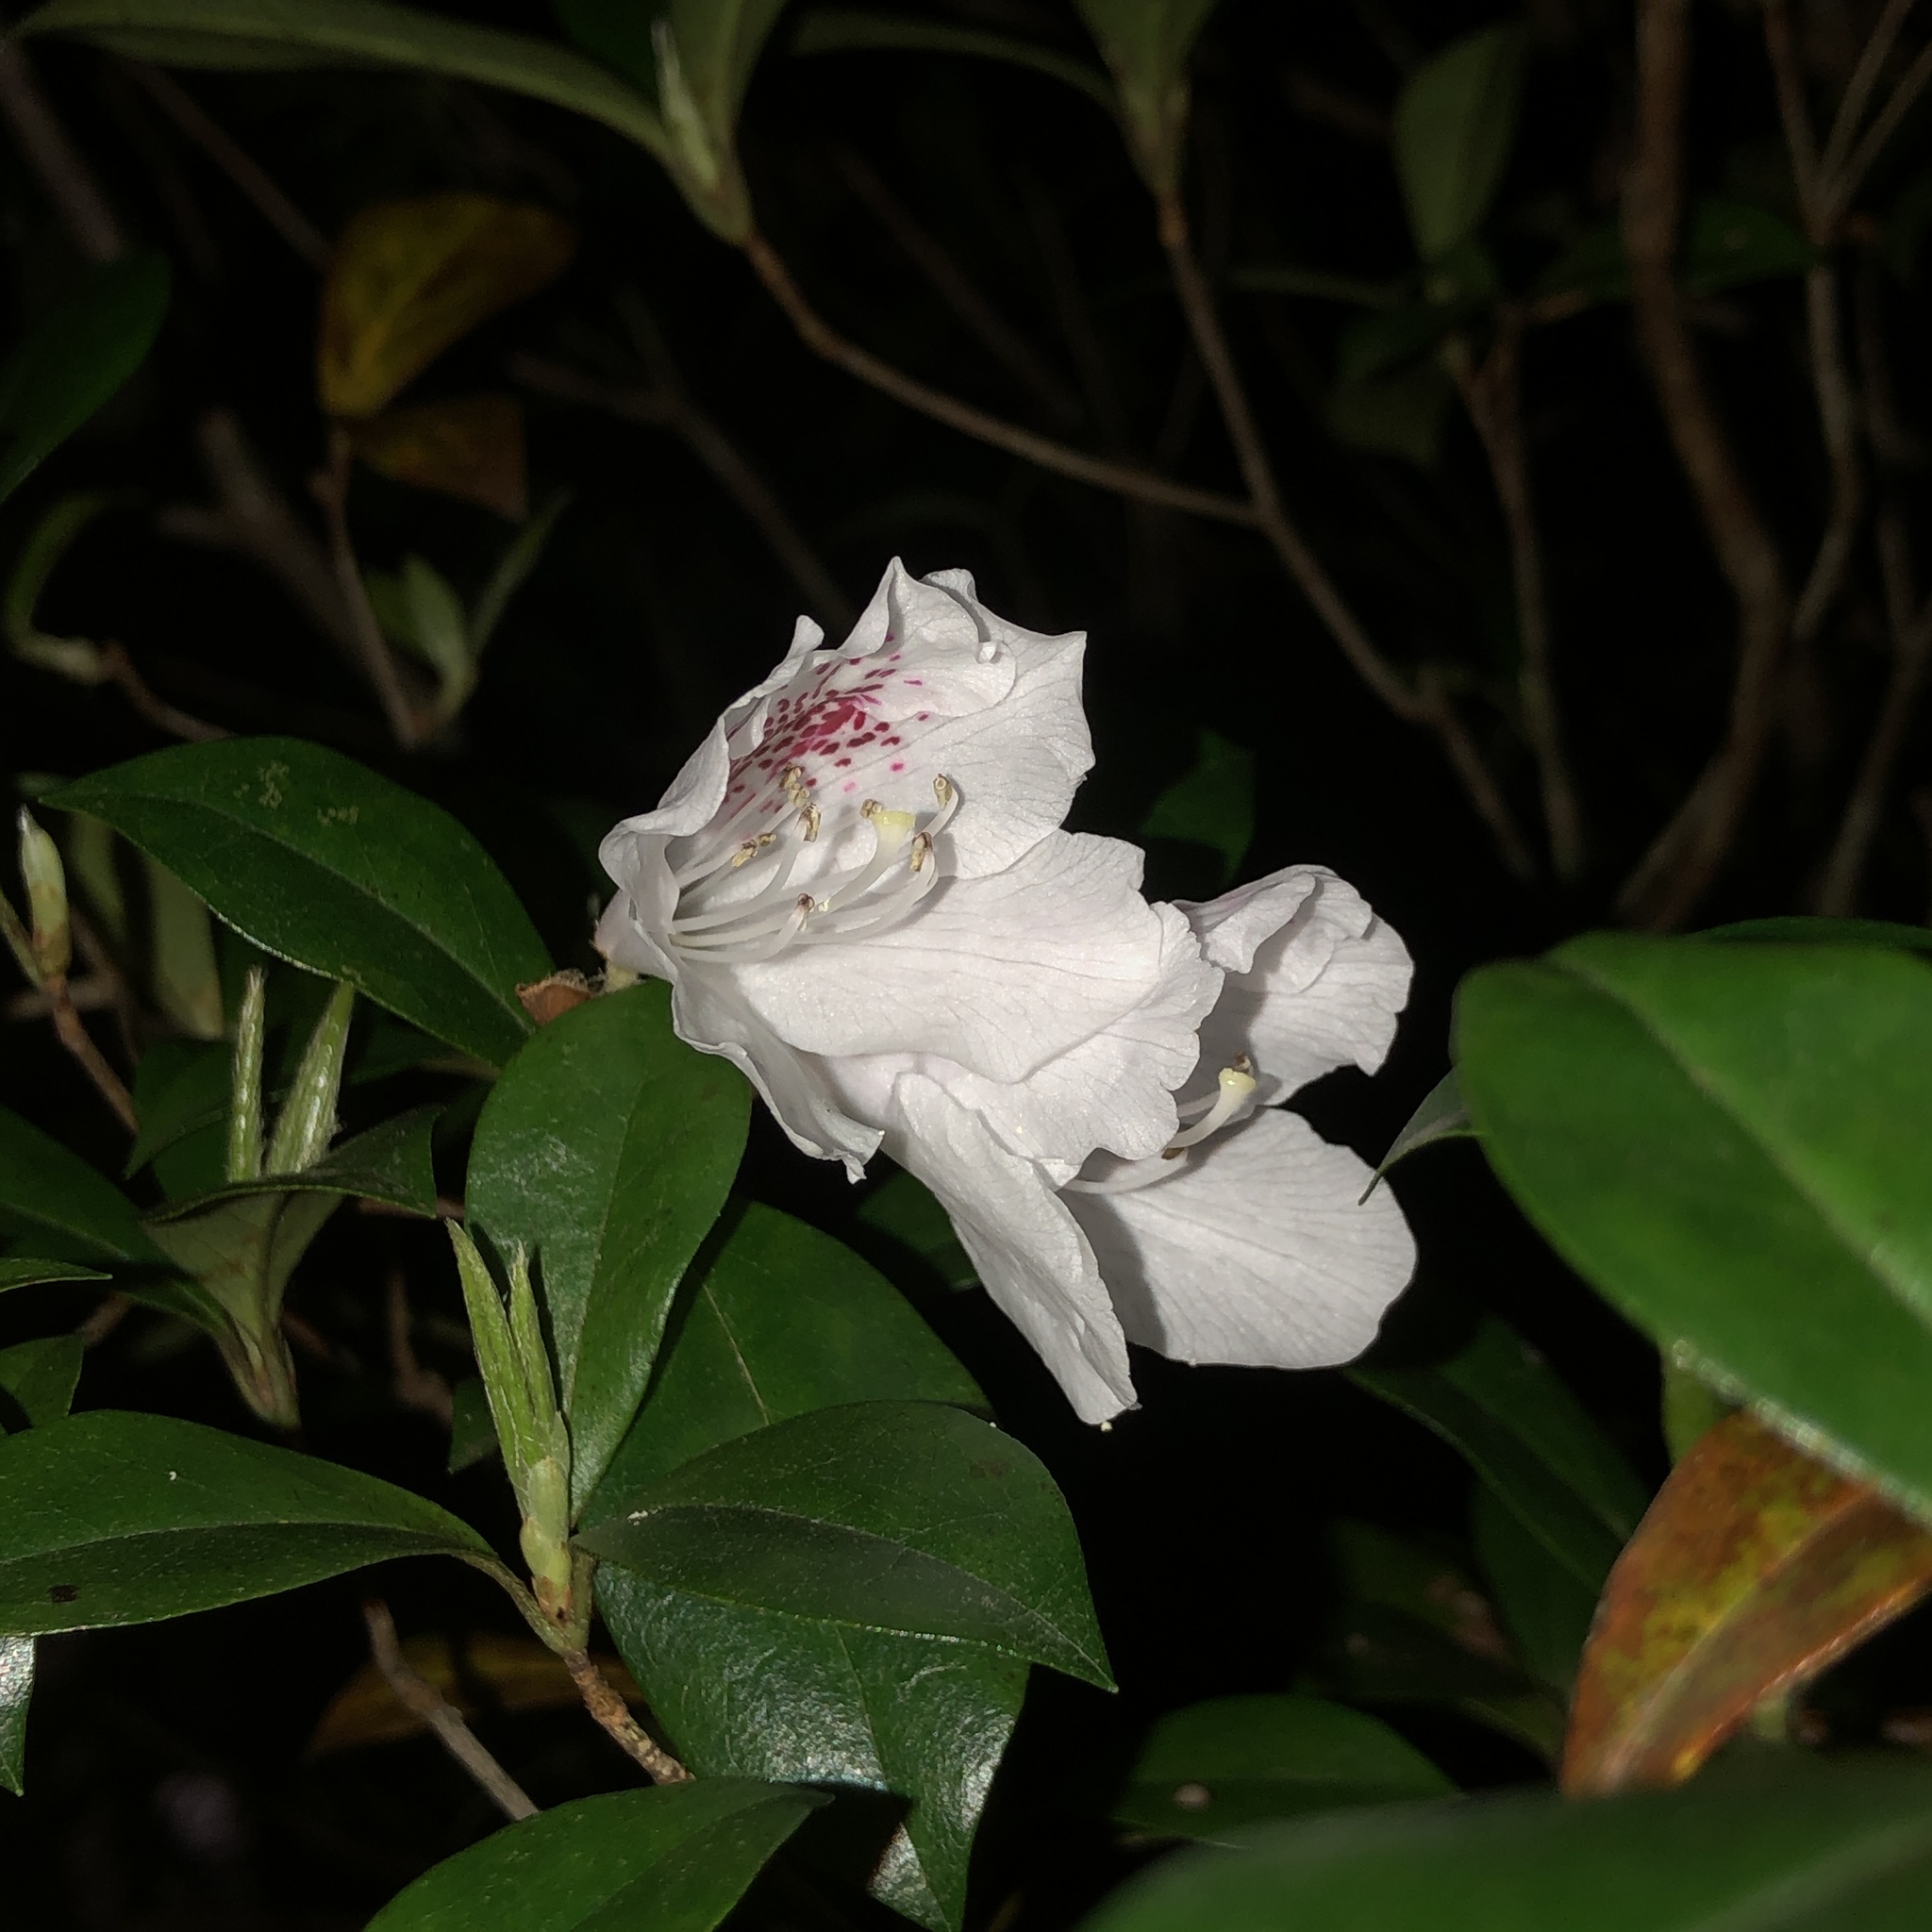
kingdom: Plantae
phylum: Tracheophyta
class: Magnoliopsida
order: Ericales
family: Ericaceae
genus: Rhododendron
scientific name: Rhododendron tashiroi
